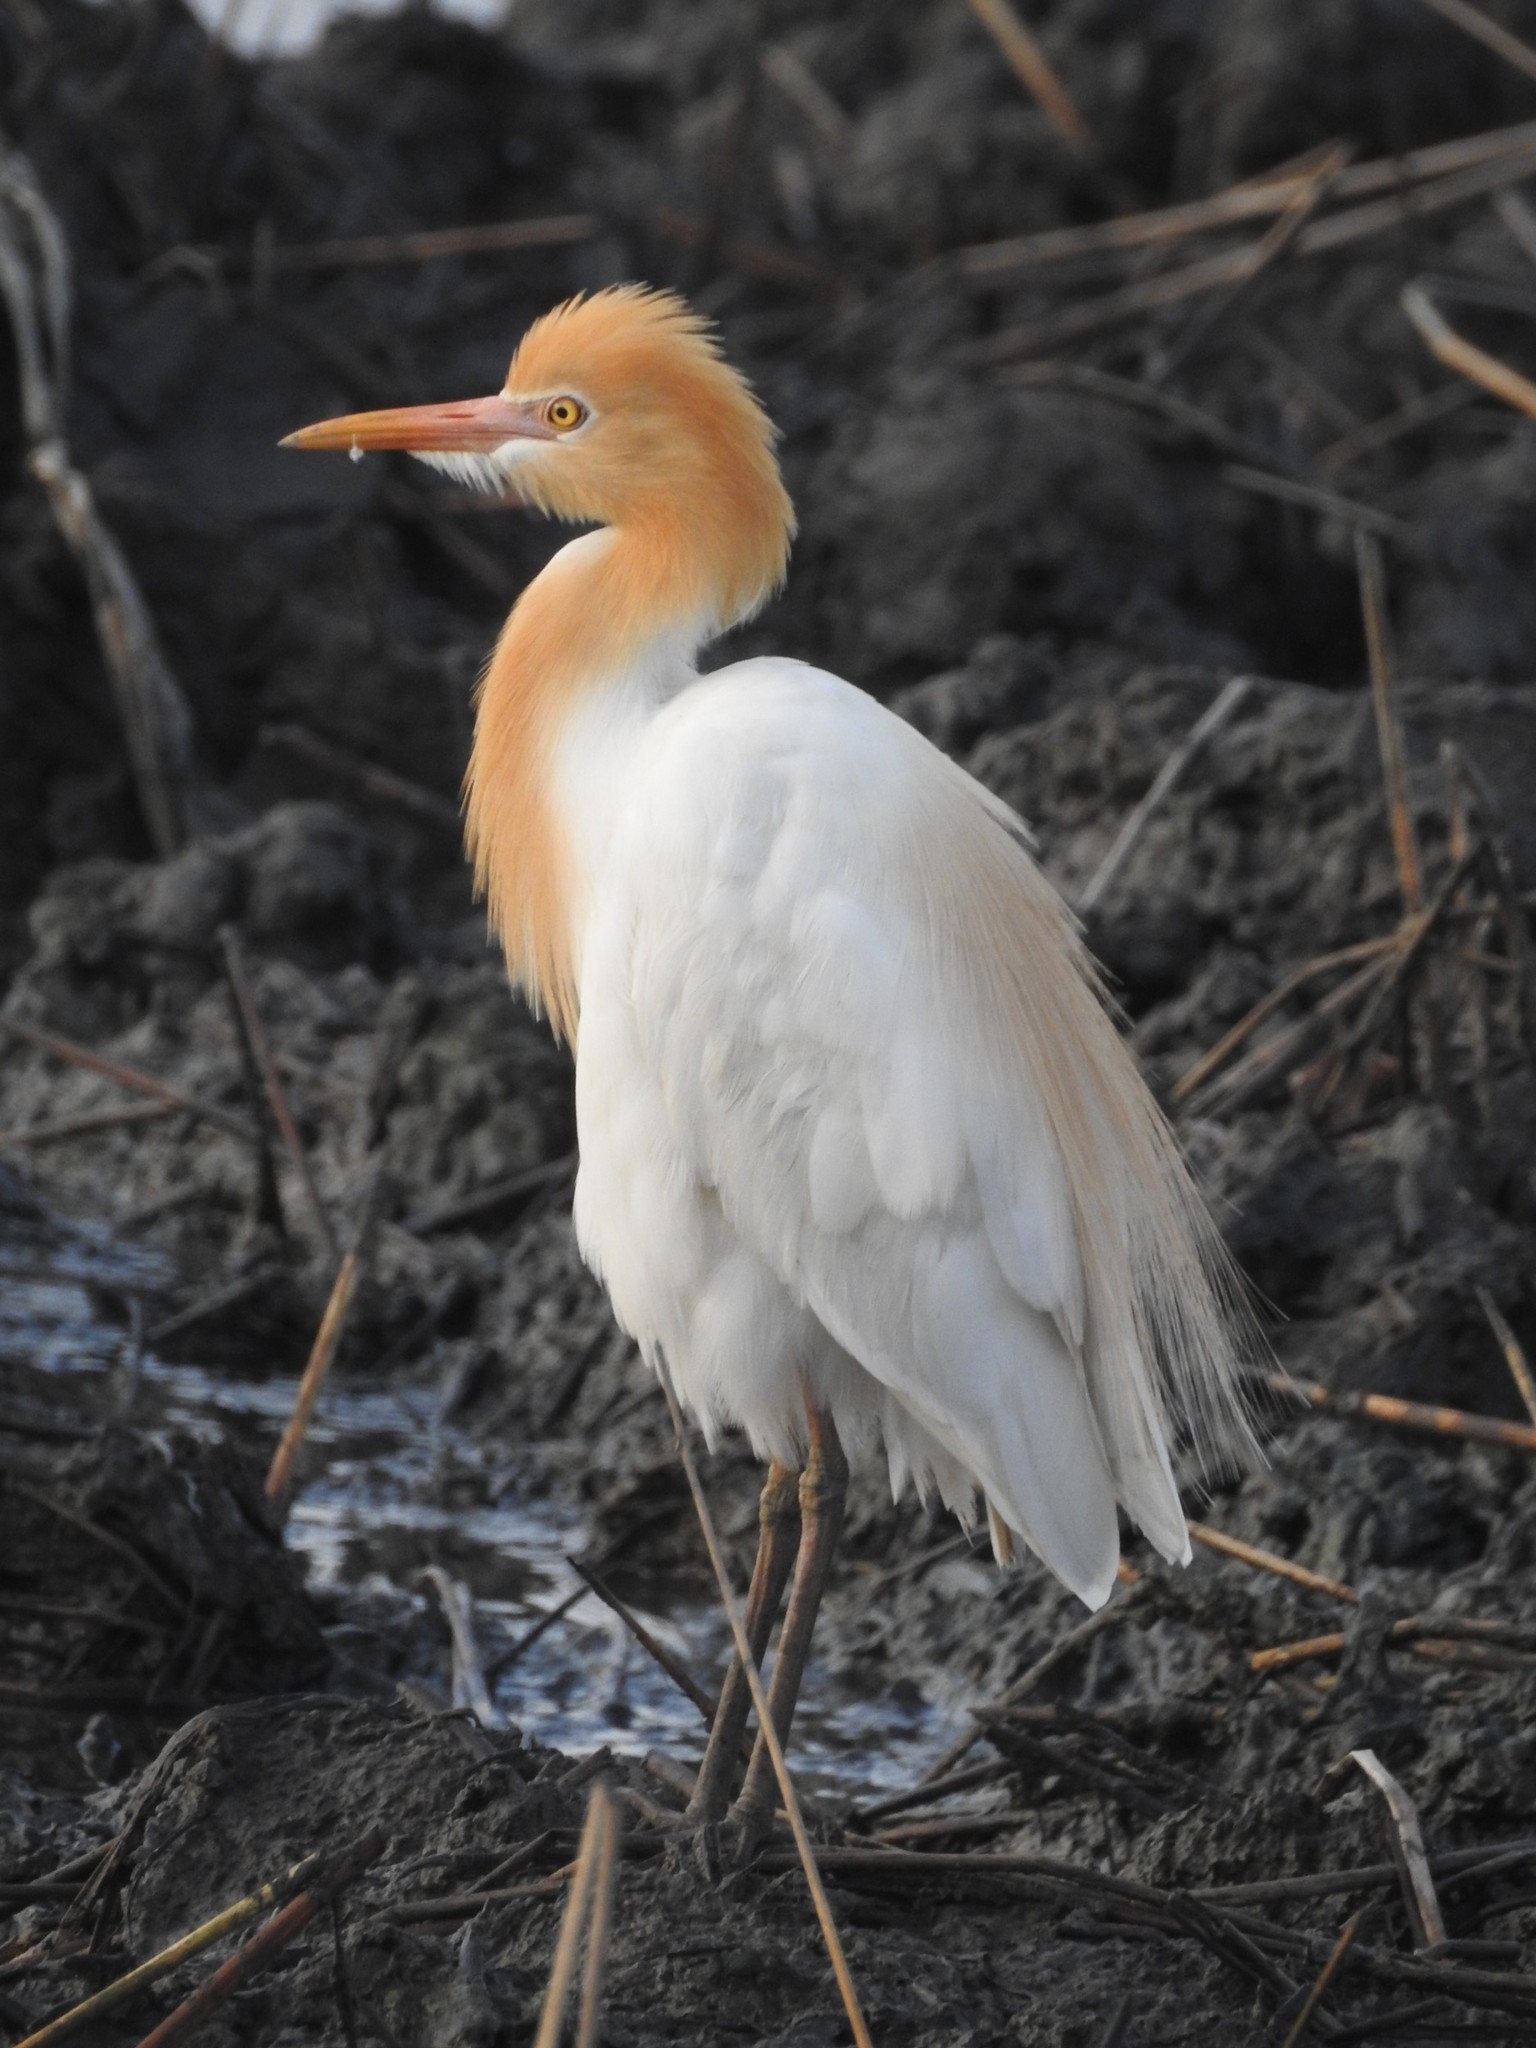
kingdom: Animalia
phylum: Chordata
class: Aves
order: Pelecaniformes
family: Ardeidae
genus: Bubulcus
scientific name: Bubulcus coromandus
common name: Eastern cattle egret
